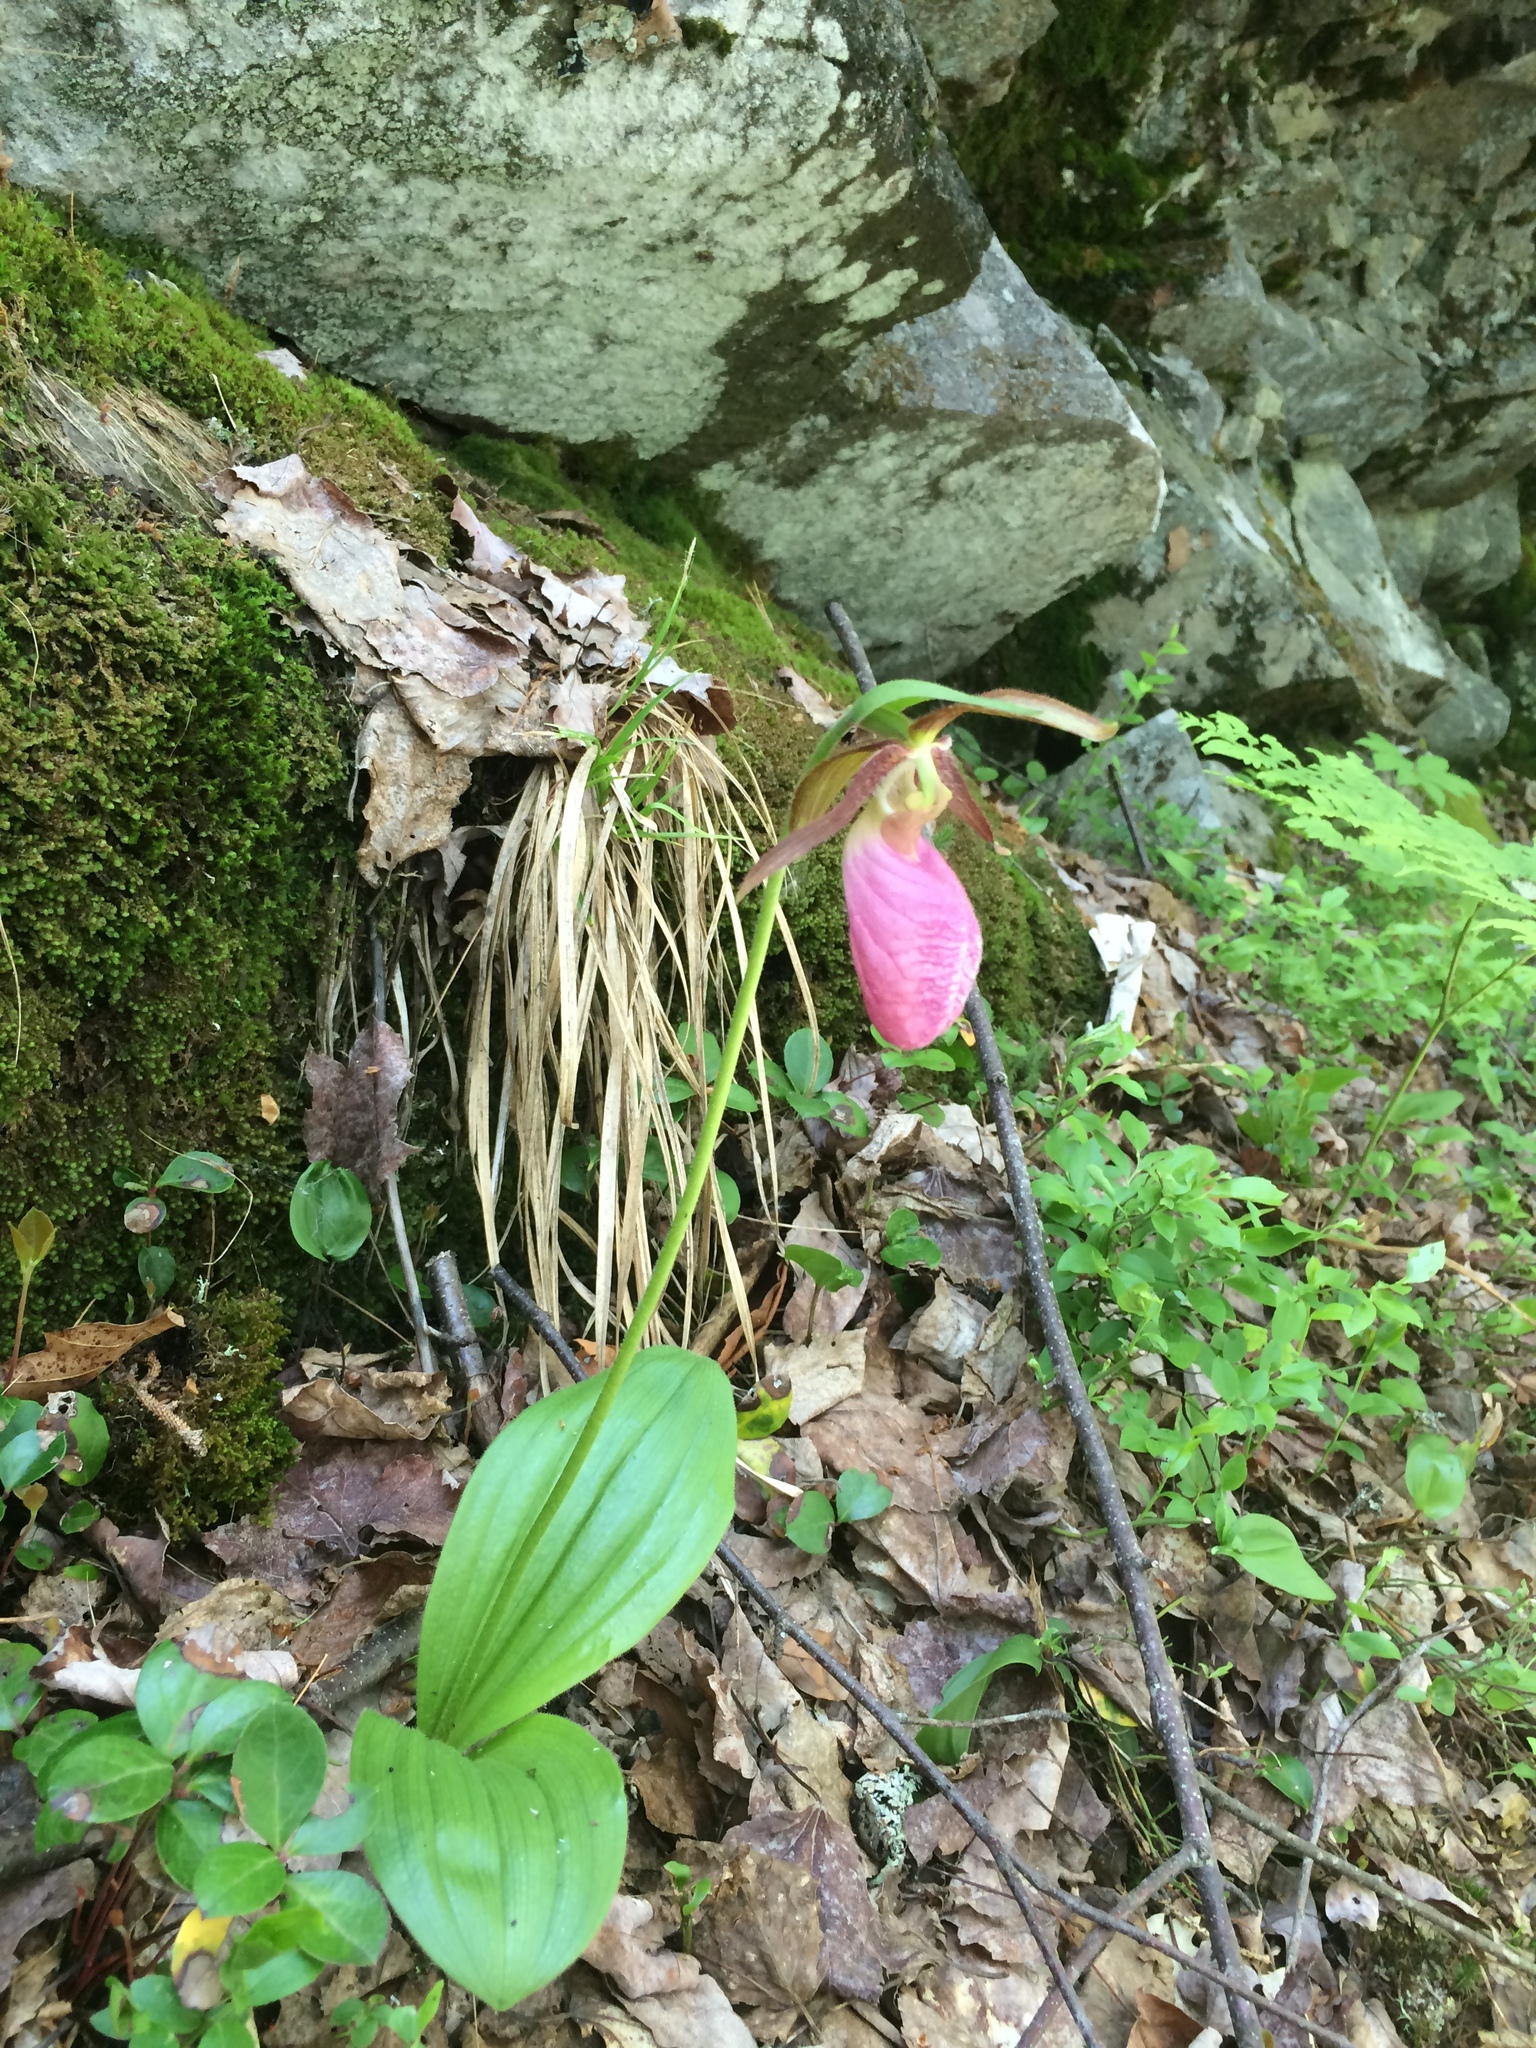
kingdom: Plantae
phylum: Tracheophyta
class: Liliopsida
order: Asparagales
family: Orchidaceae
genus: Cypripedium
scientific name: Cypripedium acaule
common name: Pink lady's-slipper
